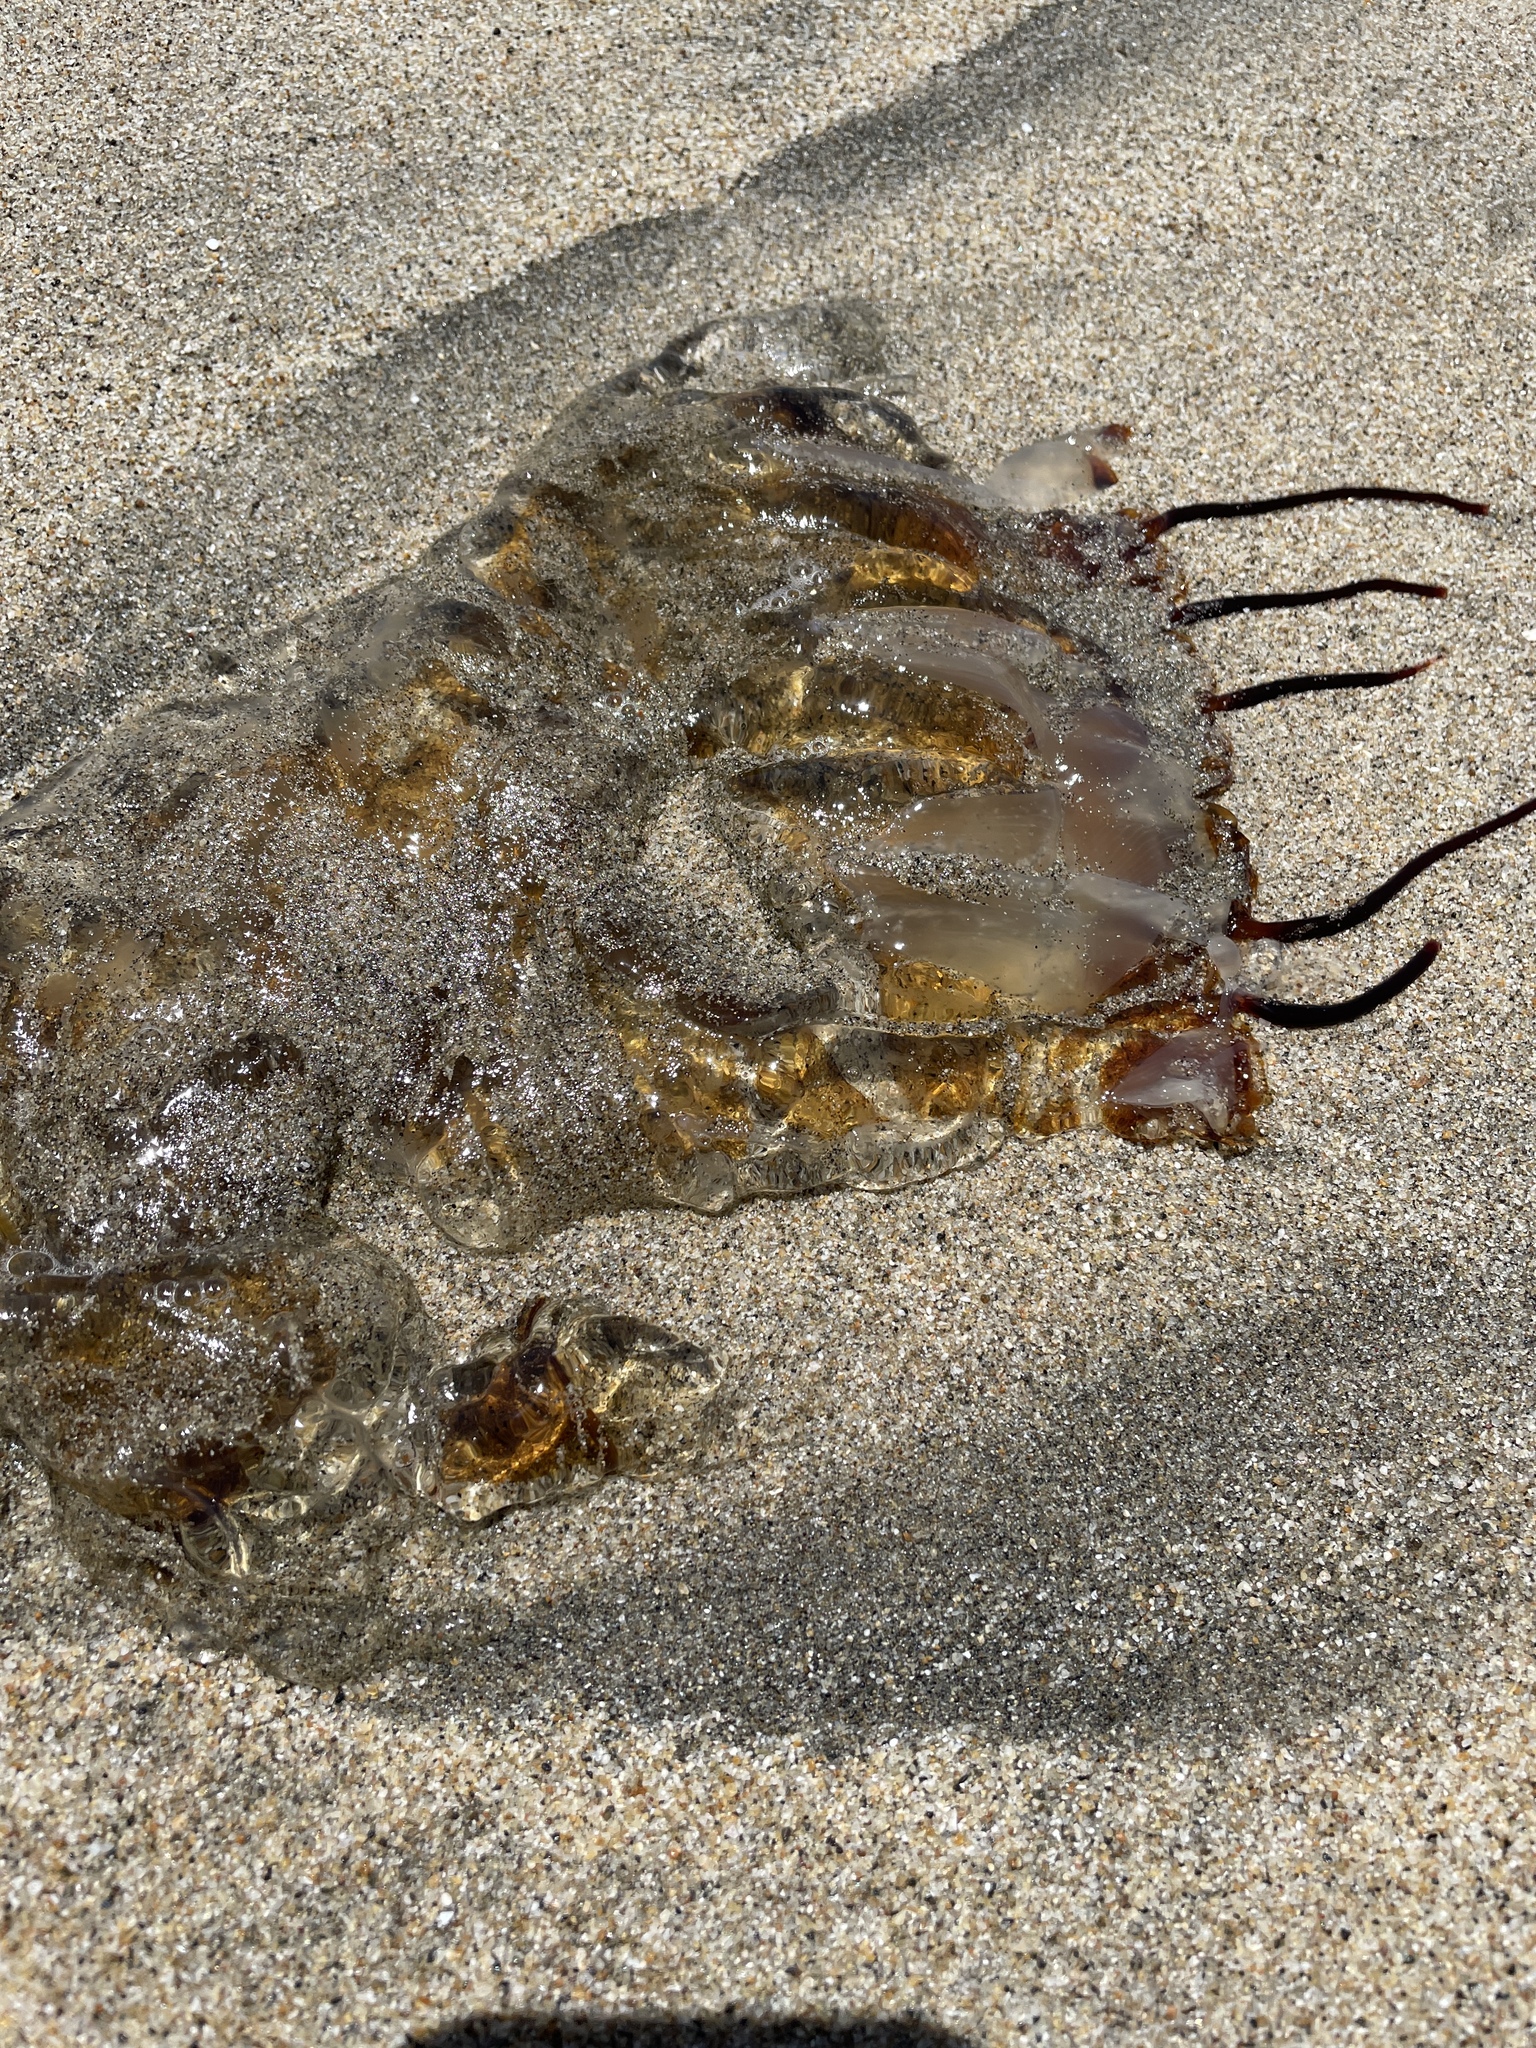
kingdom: Animalia
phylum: Cnidaria
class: Scyphozoa
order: Semaeostomeae
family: Pelagiidae
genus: Chrysaora
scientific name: Chrysaora fuscescens
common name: Sea nettle
